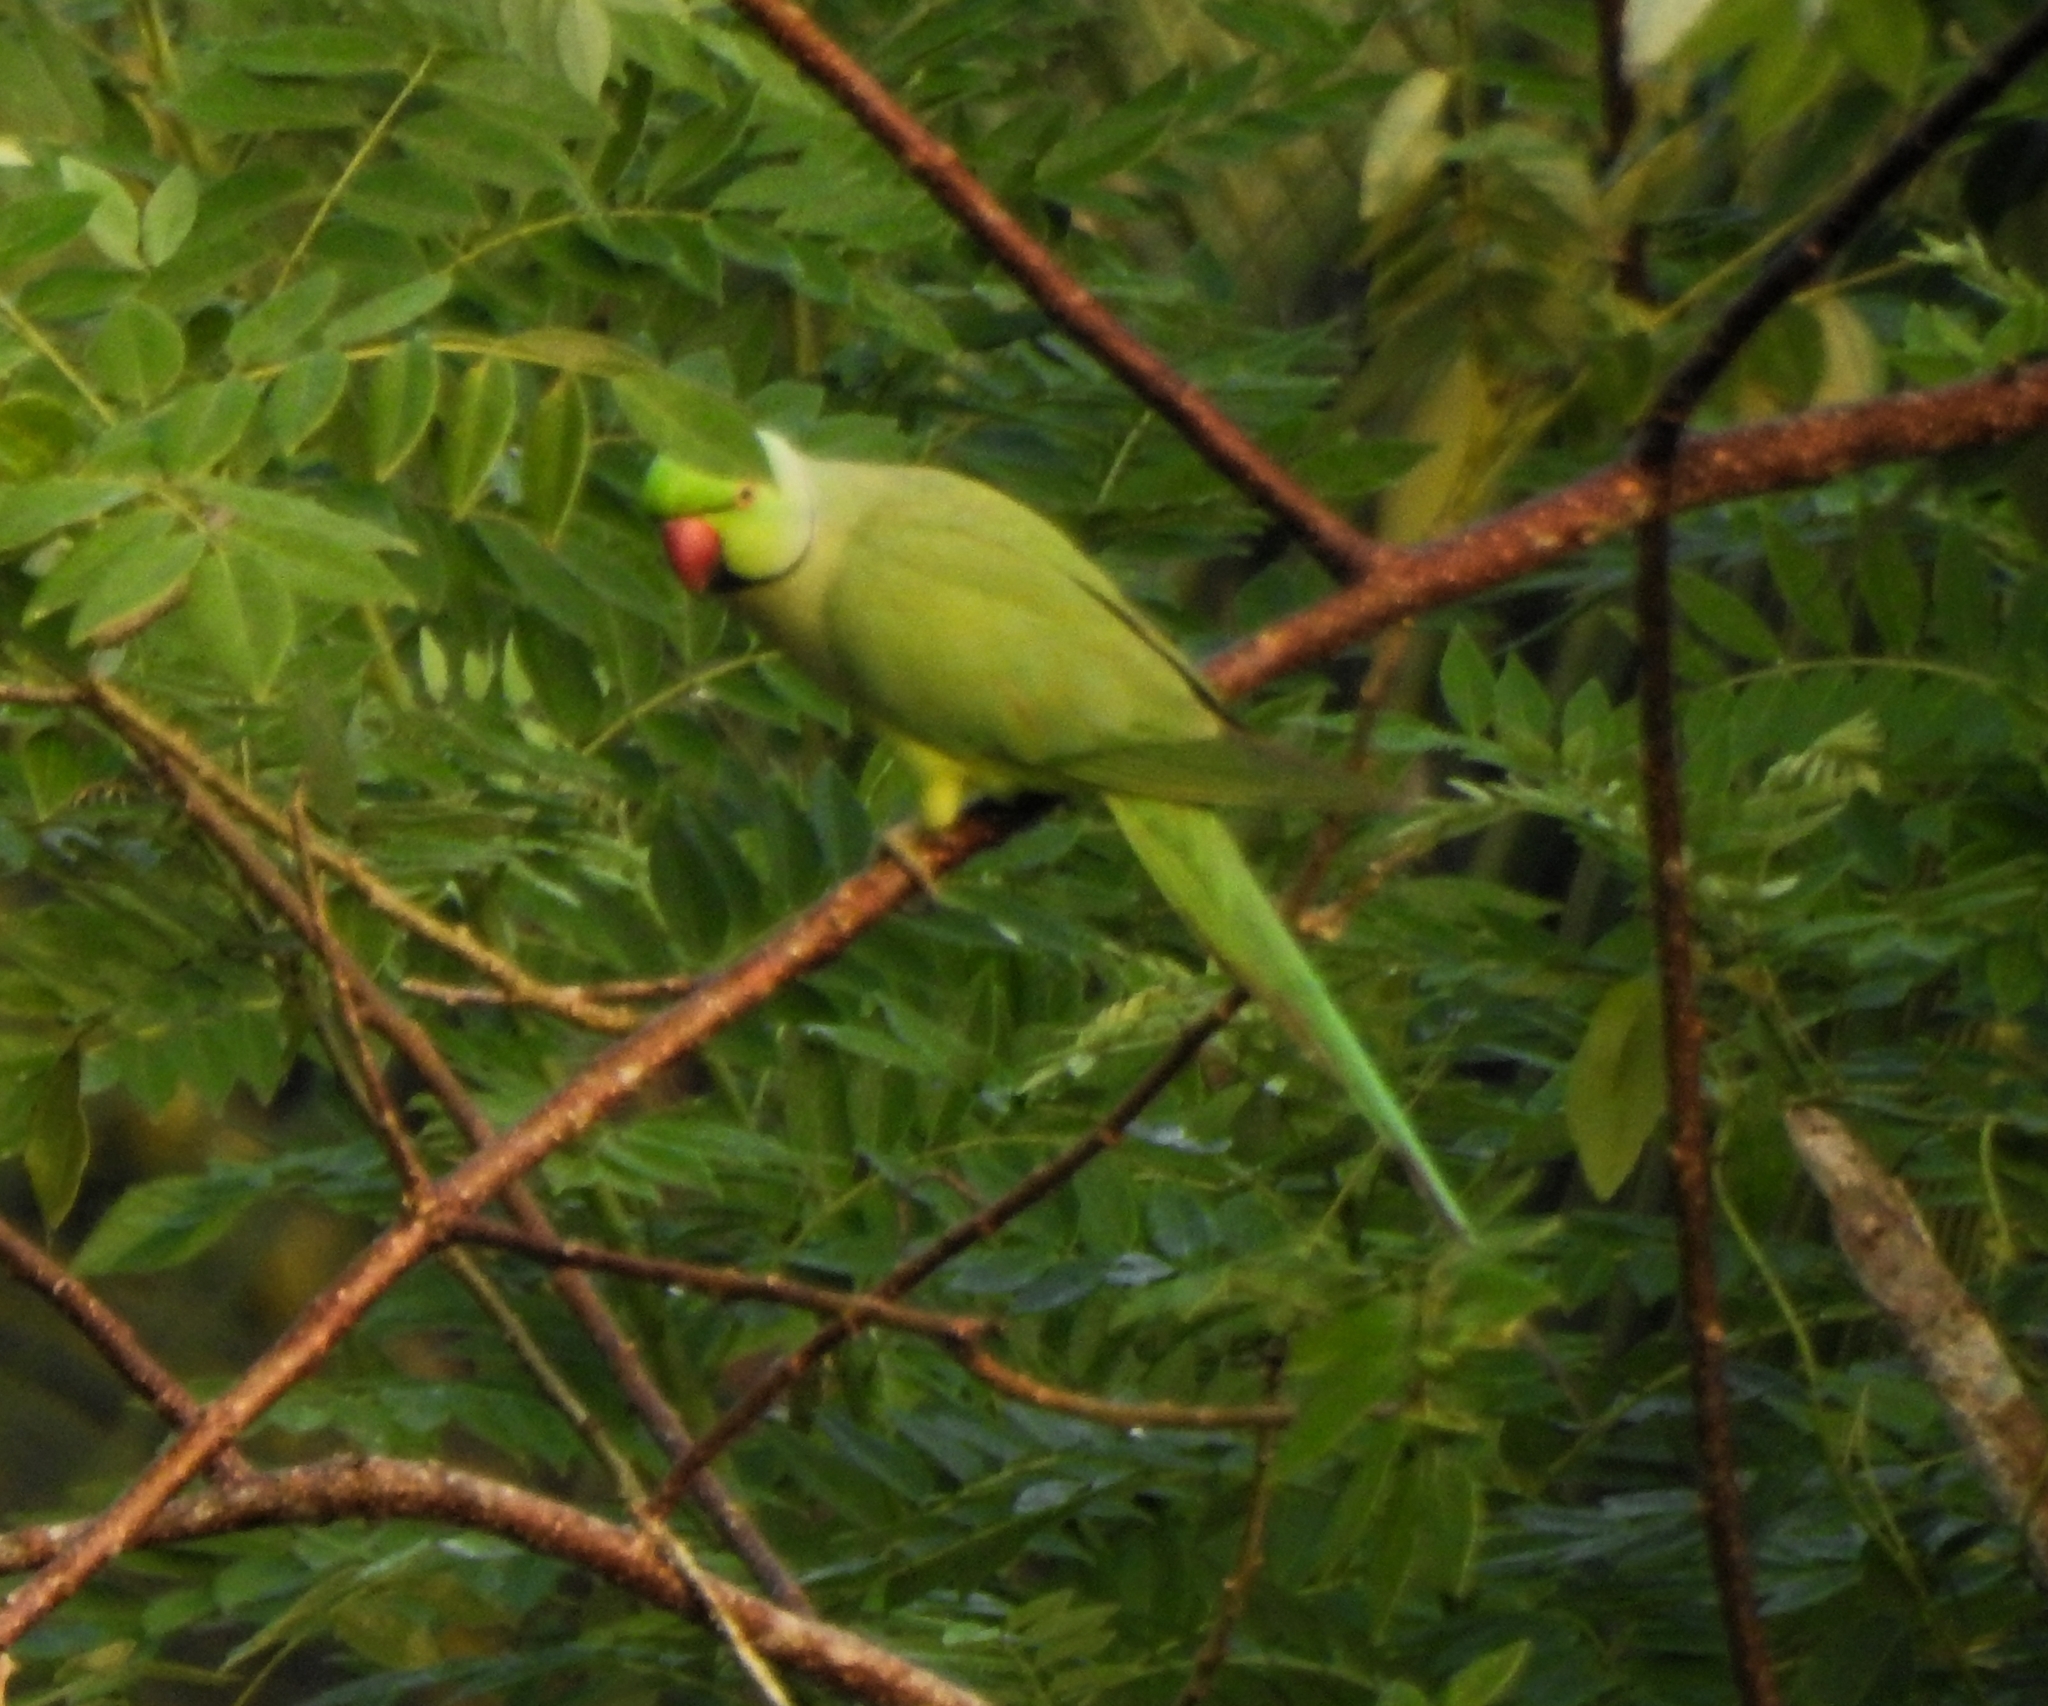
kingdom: Animalia
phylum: Chordata
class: Aves
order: Psittaciformes
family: Psittacidae
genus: Psittacula
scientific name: Psittacula krameri
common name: Rose-ringed parakeet
